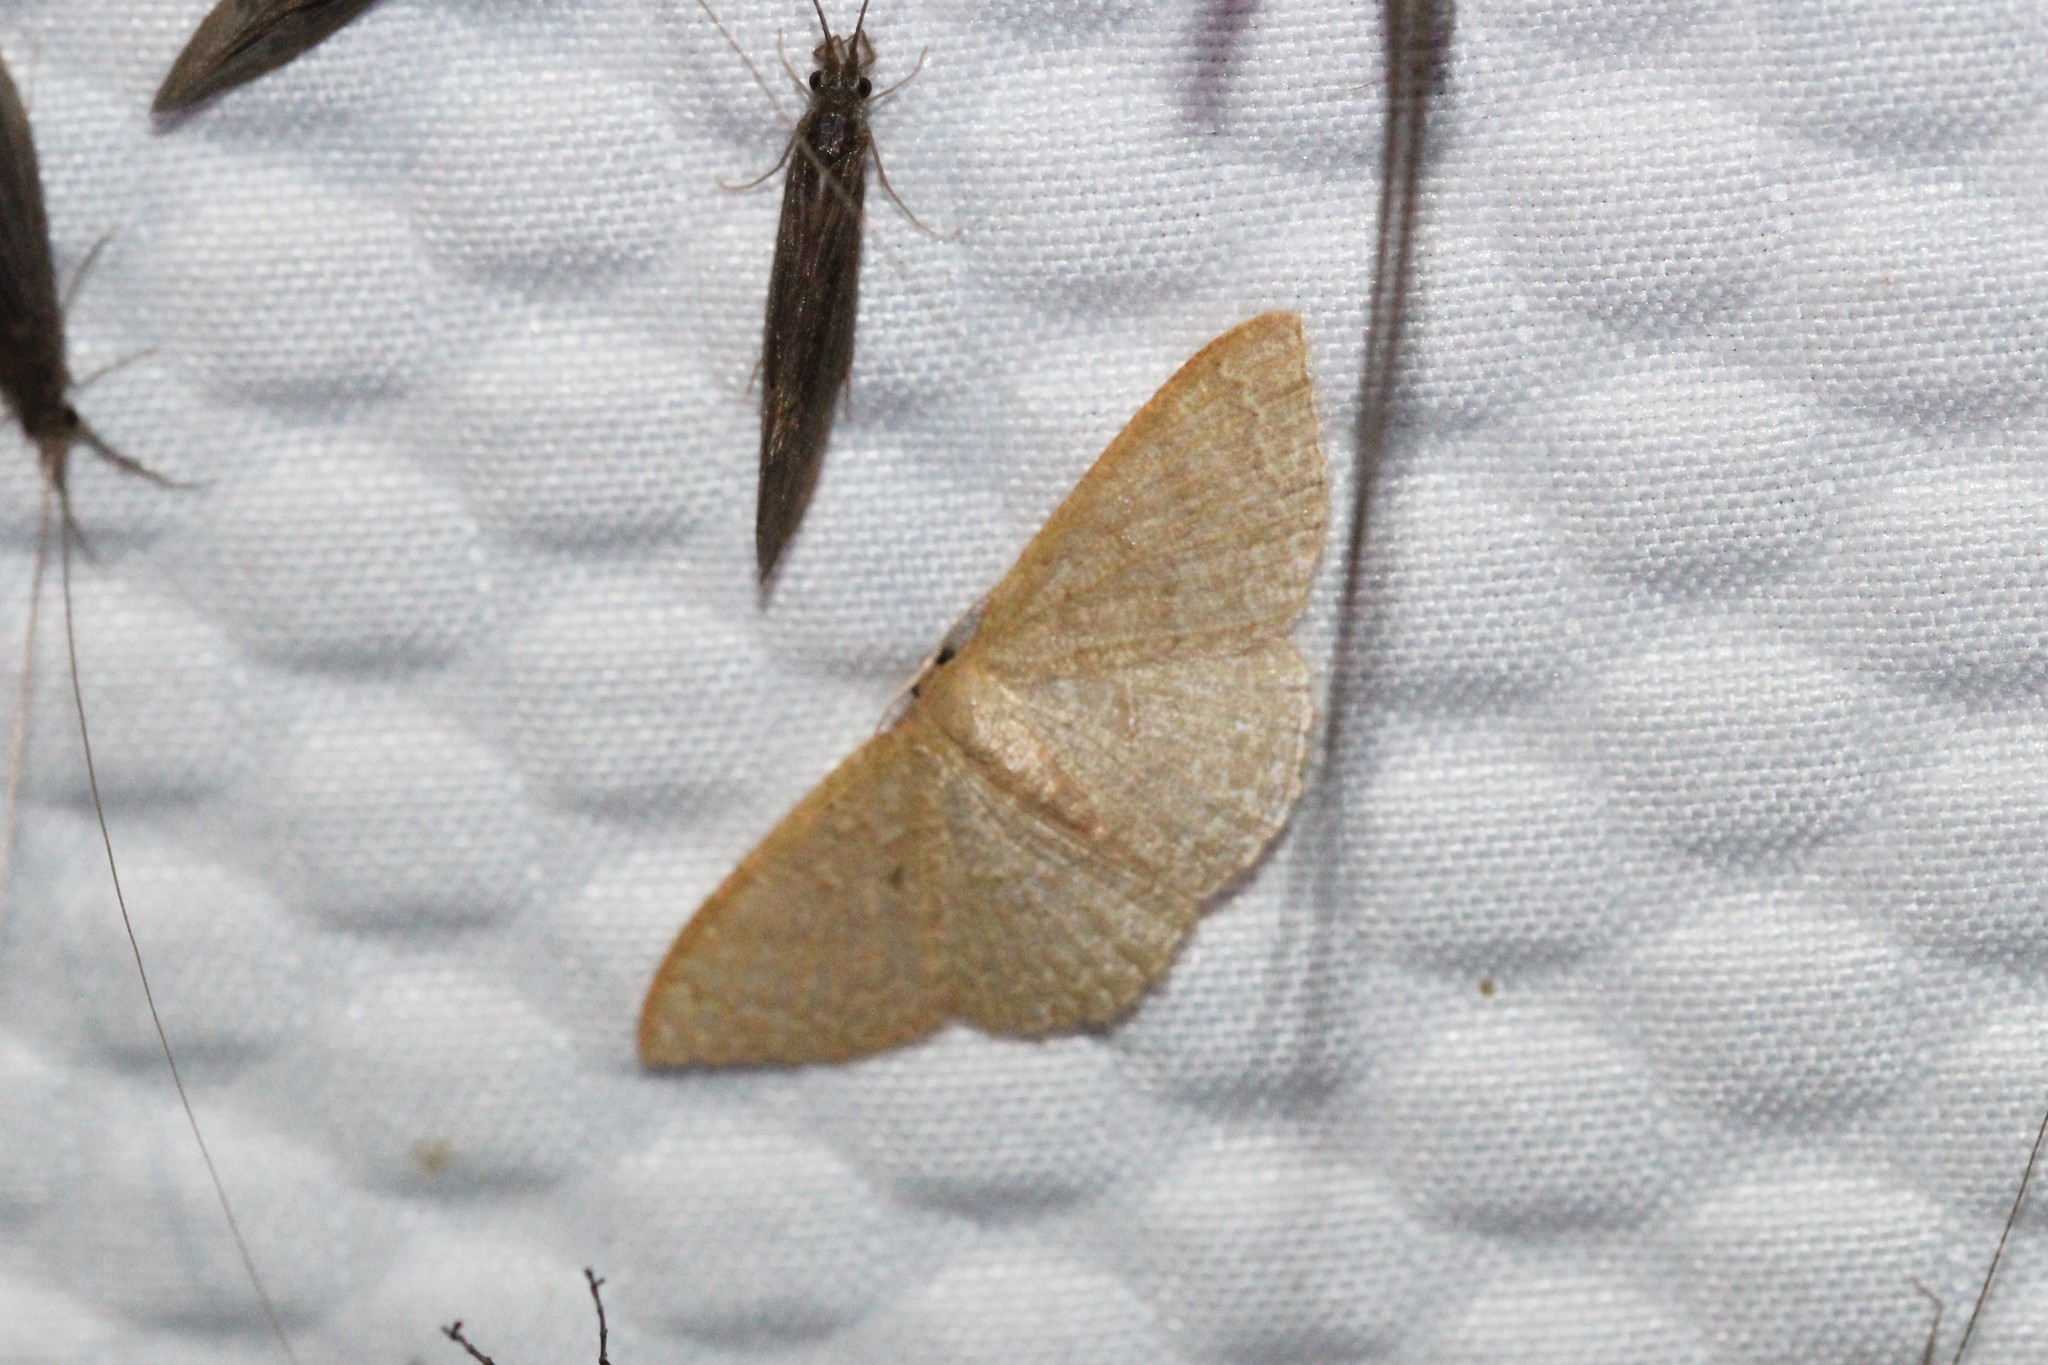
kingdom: Animalia
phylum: Arthropoda
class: Insecta
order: Lepidoptera
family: Geometridae
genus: Pleuroprucha
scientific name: Pleuroprucha insulsaria
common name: Common tan wave
